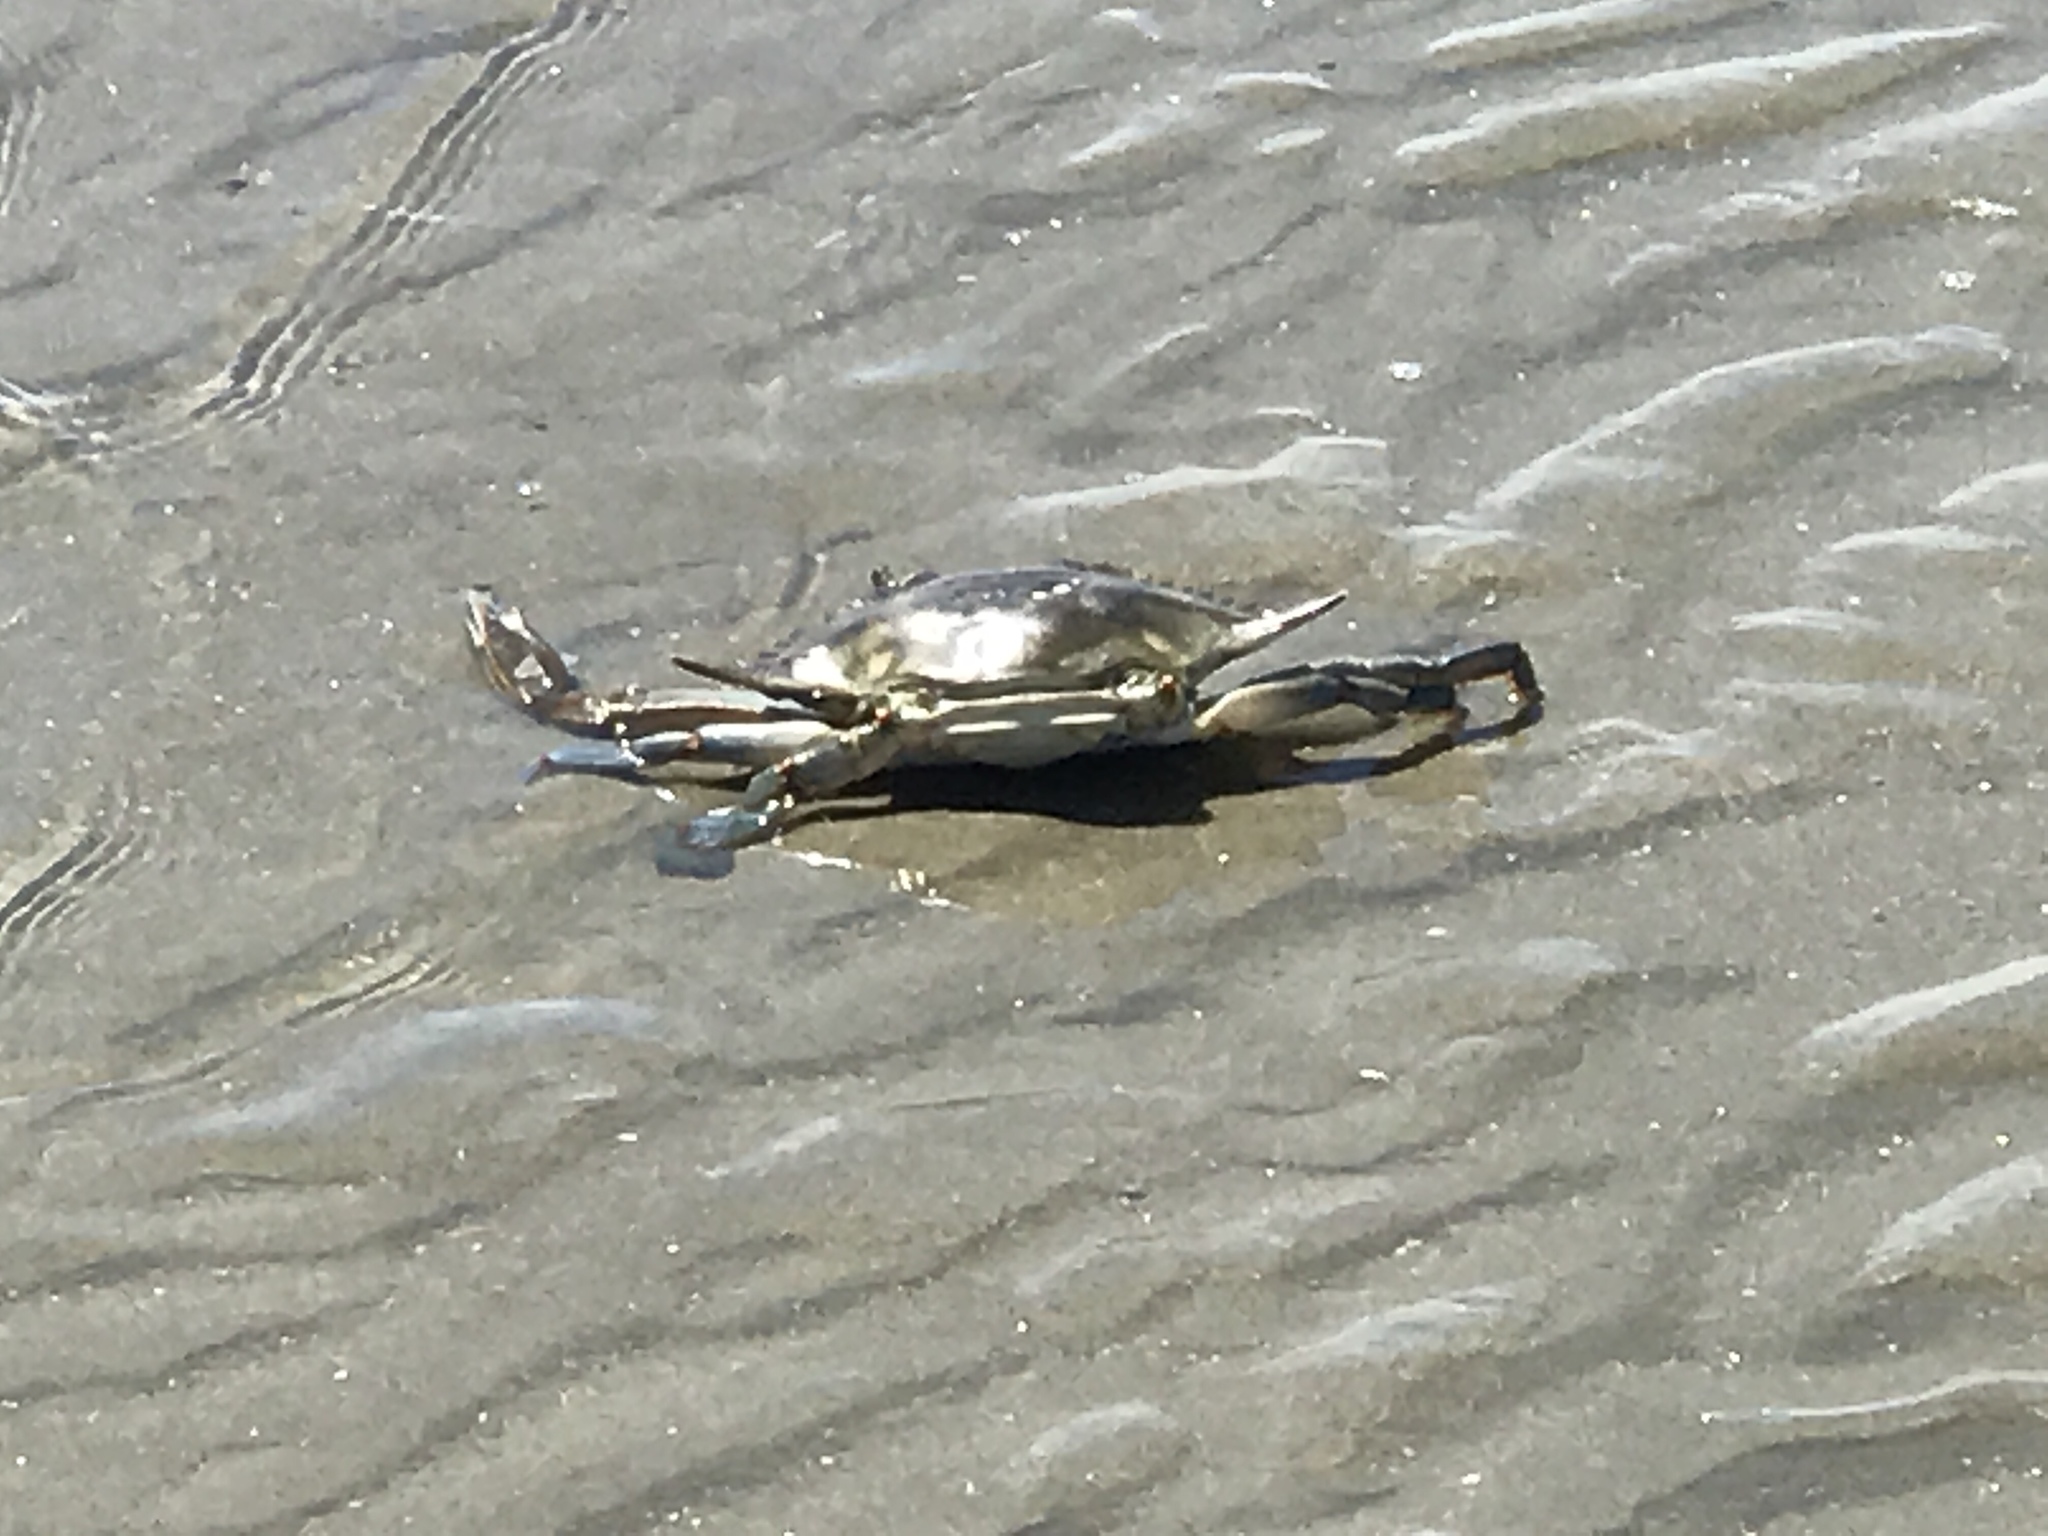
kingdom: Animalia
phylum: Arthropoda
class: Malacostraca
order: Decapoda
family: Portunidae
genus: Callinectes
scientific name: Callinectes sapidus
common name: Blue crab
